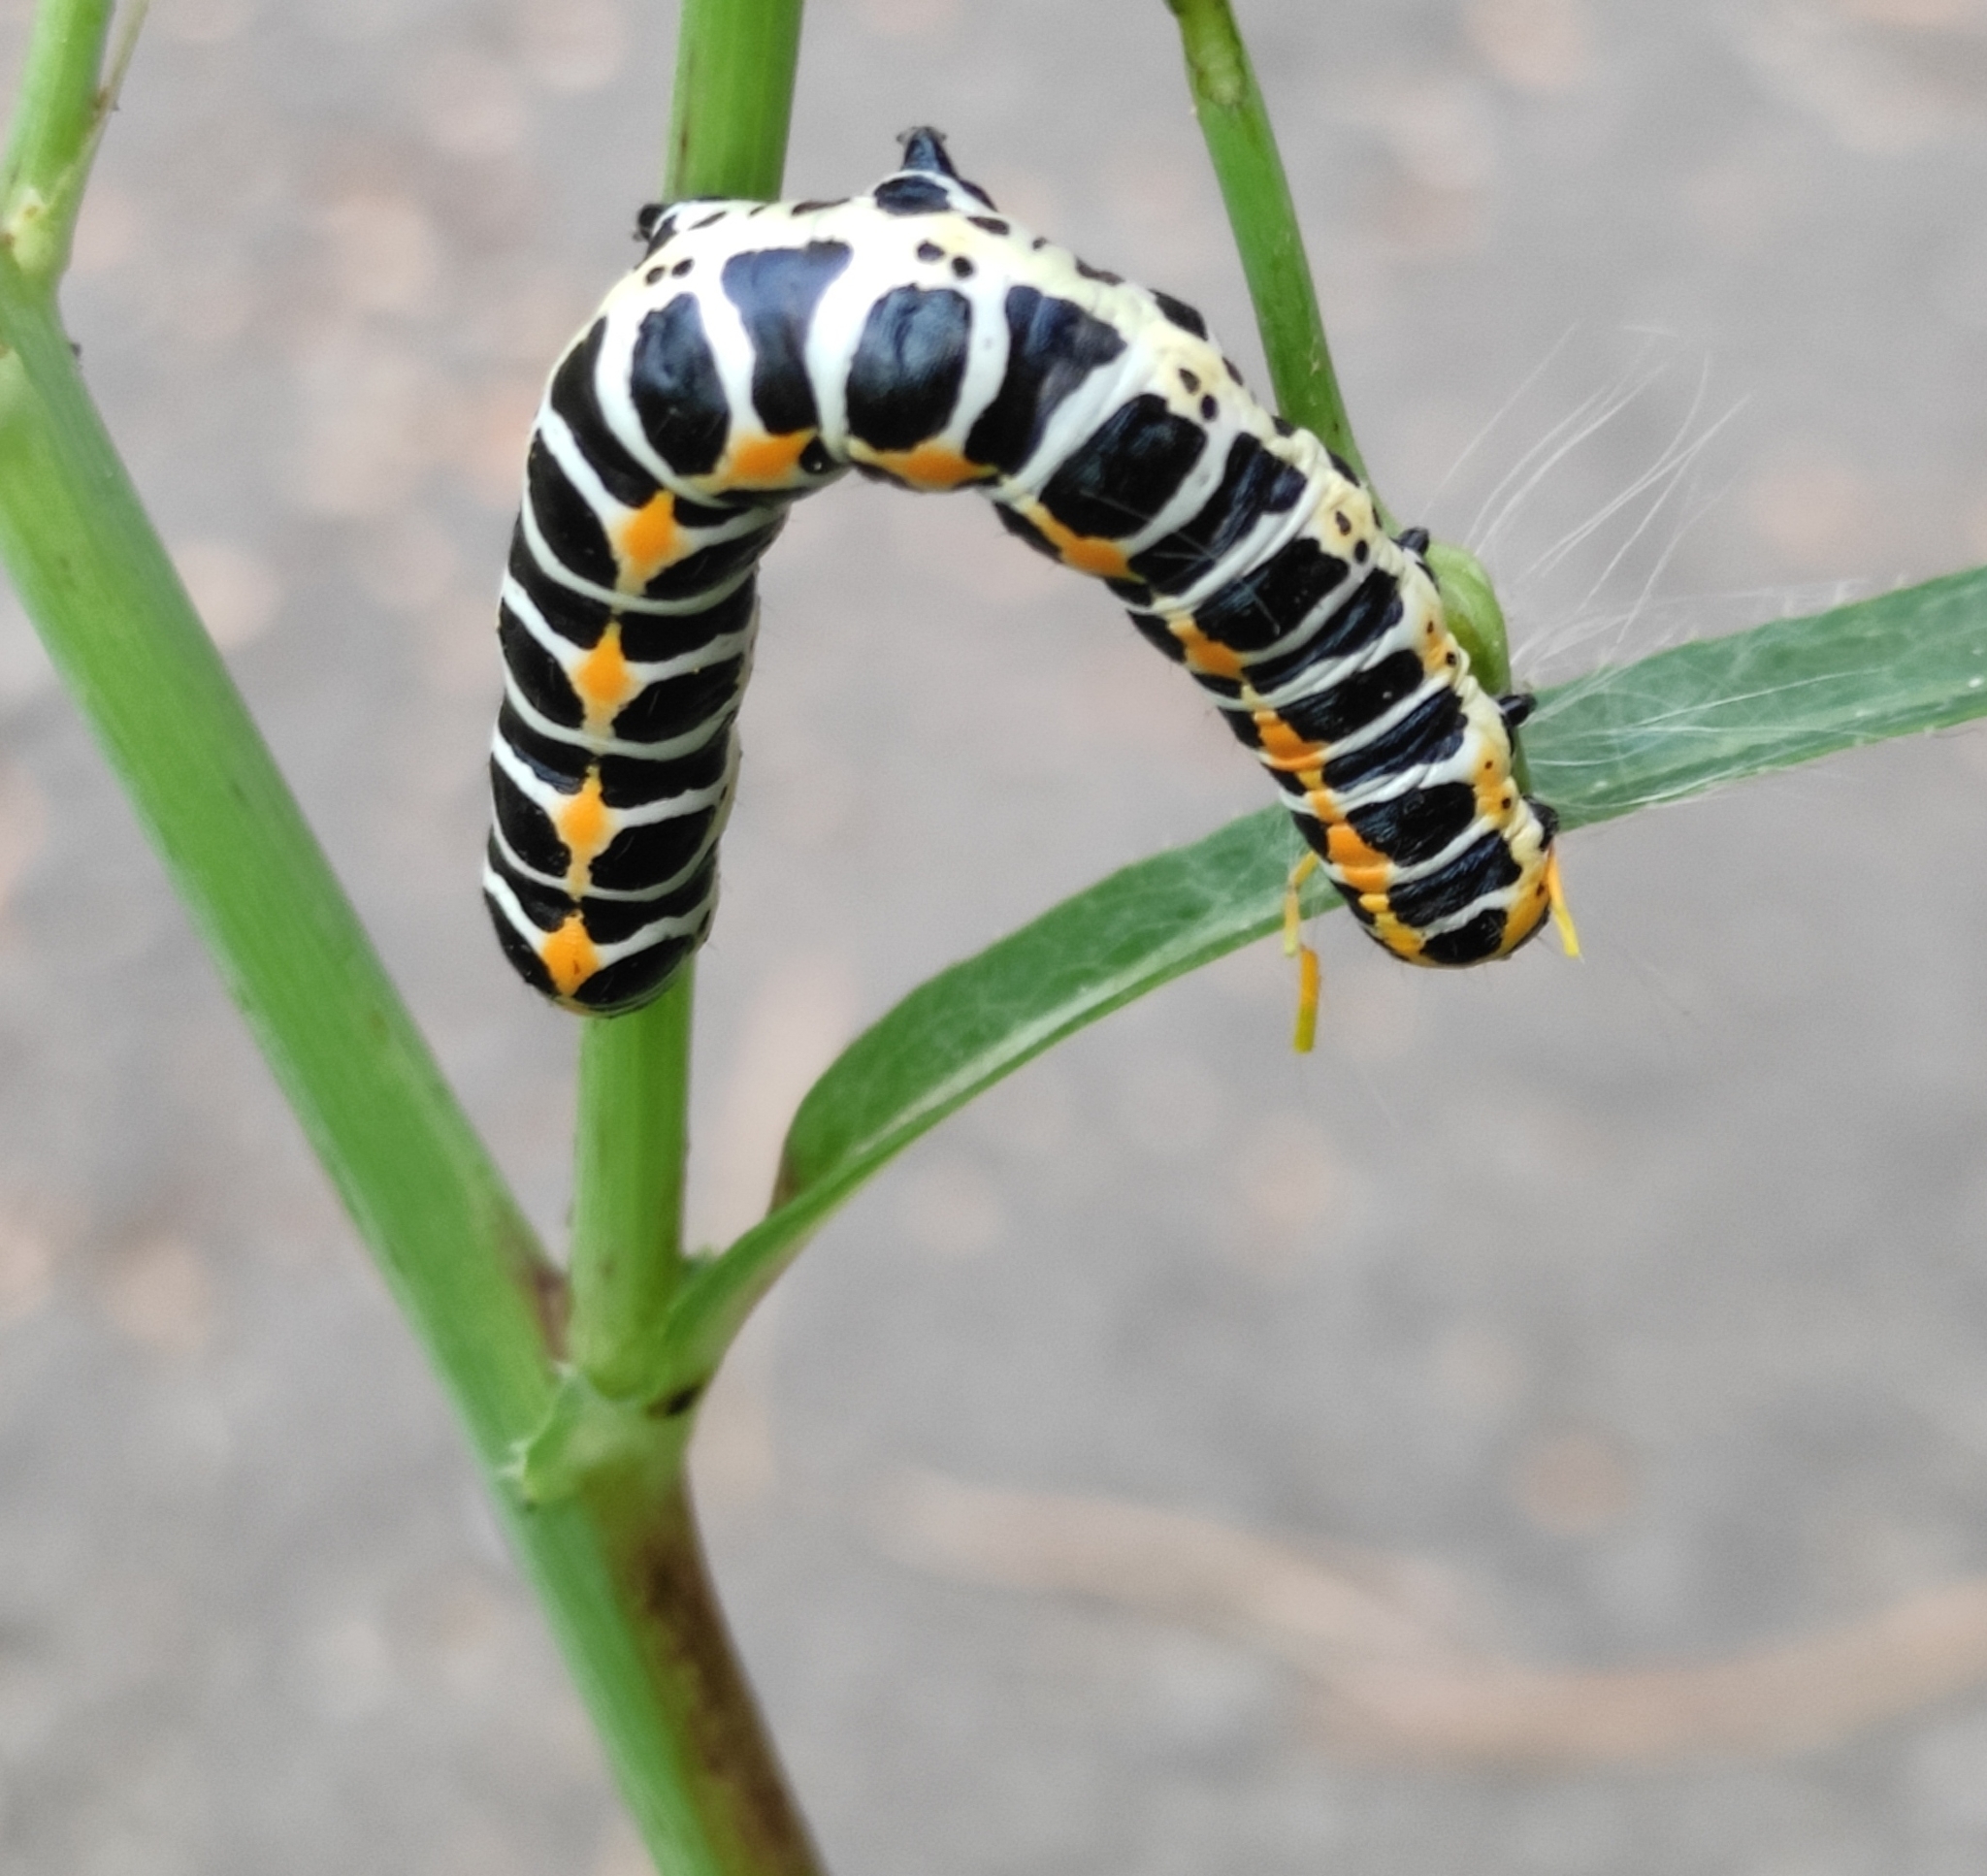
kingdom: Animalia
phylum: Arthropoda
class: Insecta
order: Lepidoptera
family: Noctuidae
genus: Cucullia
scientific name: Cucullia pustulata
